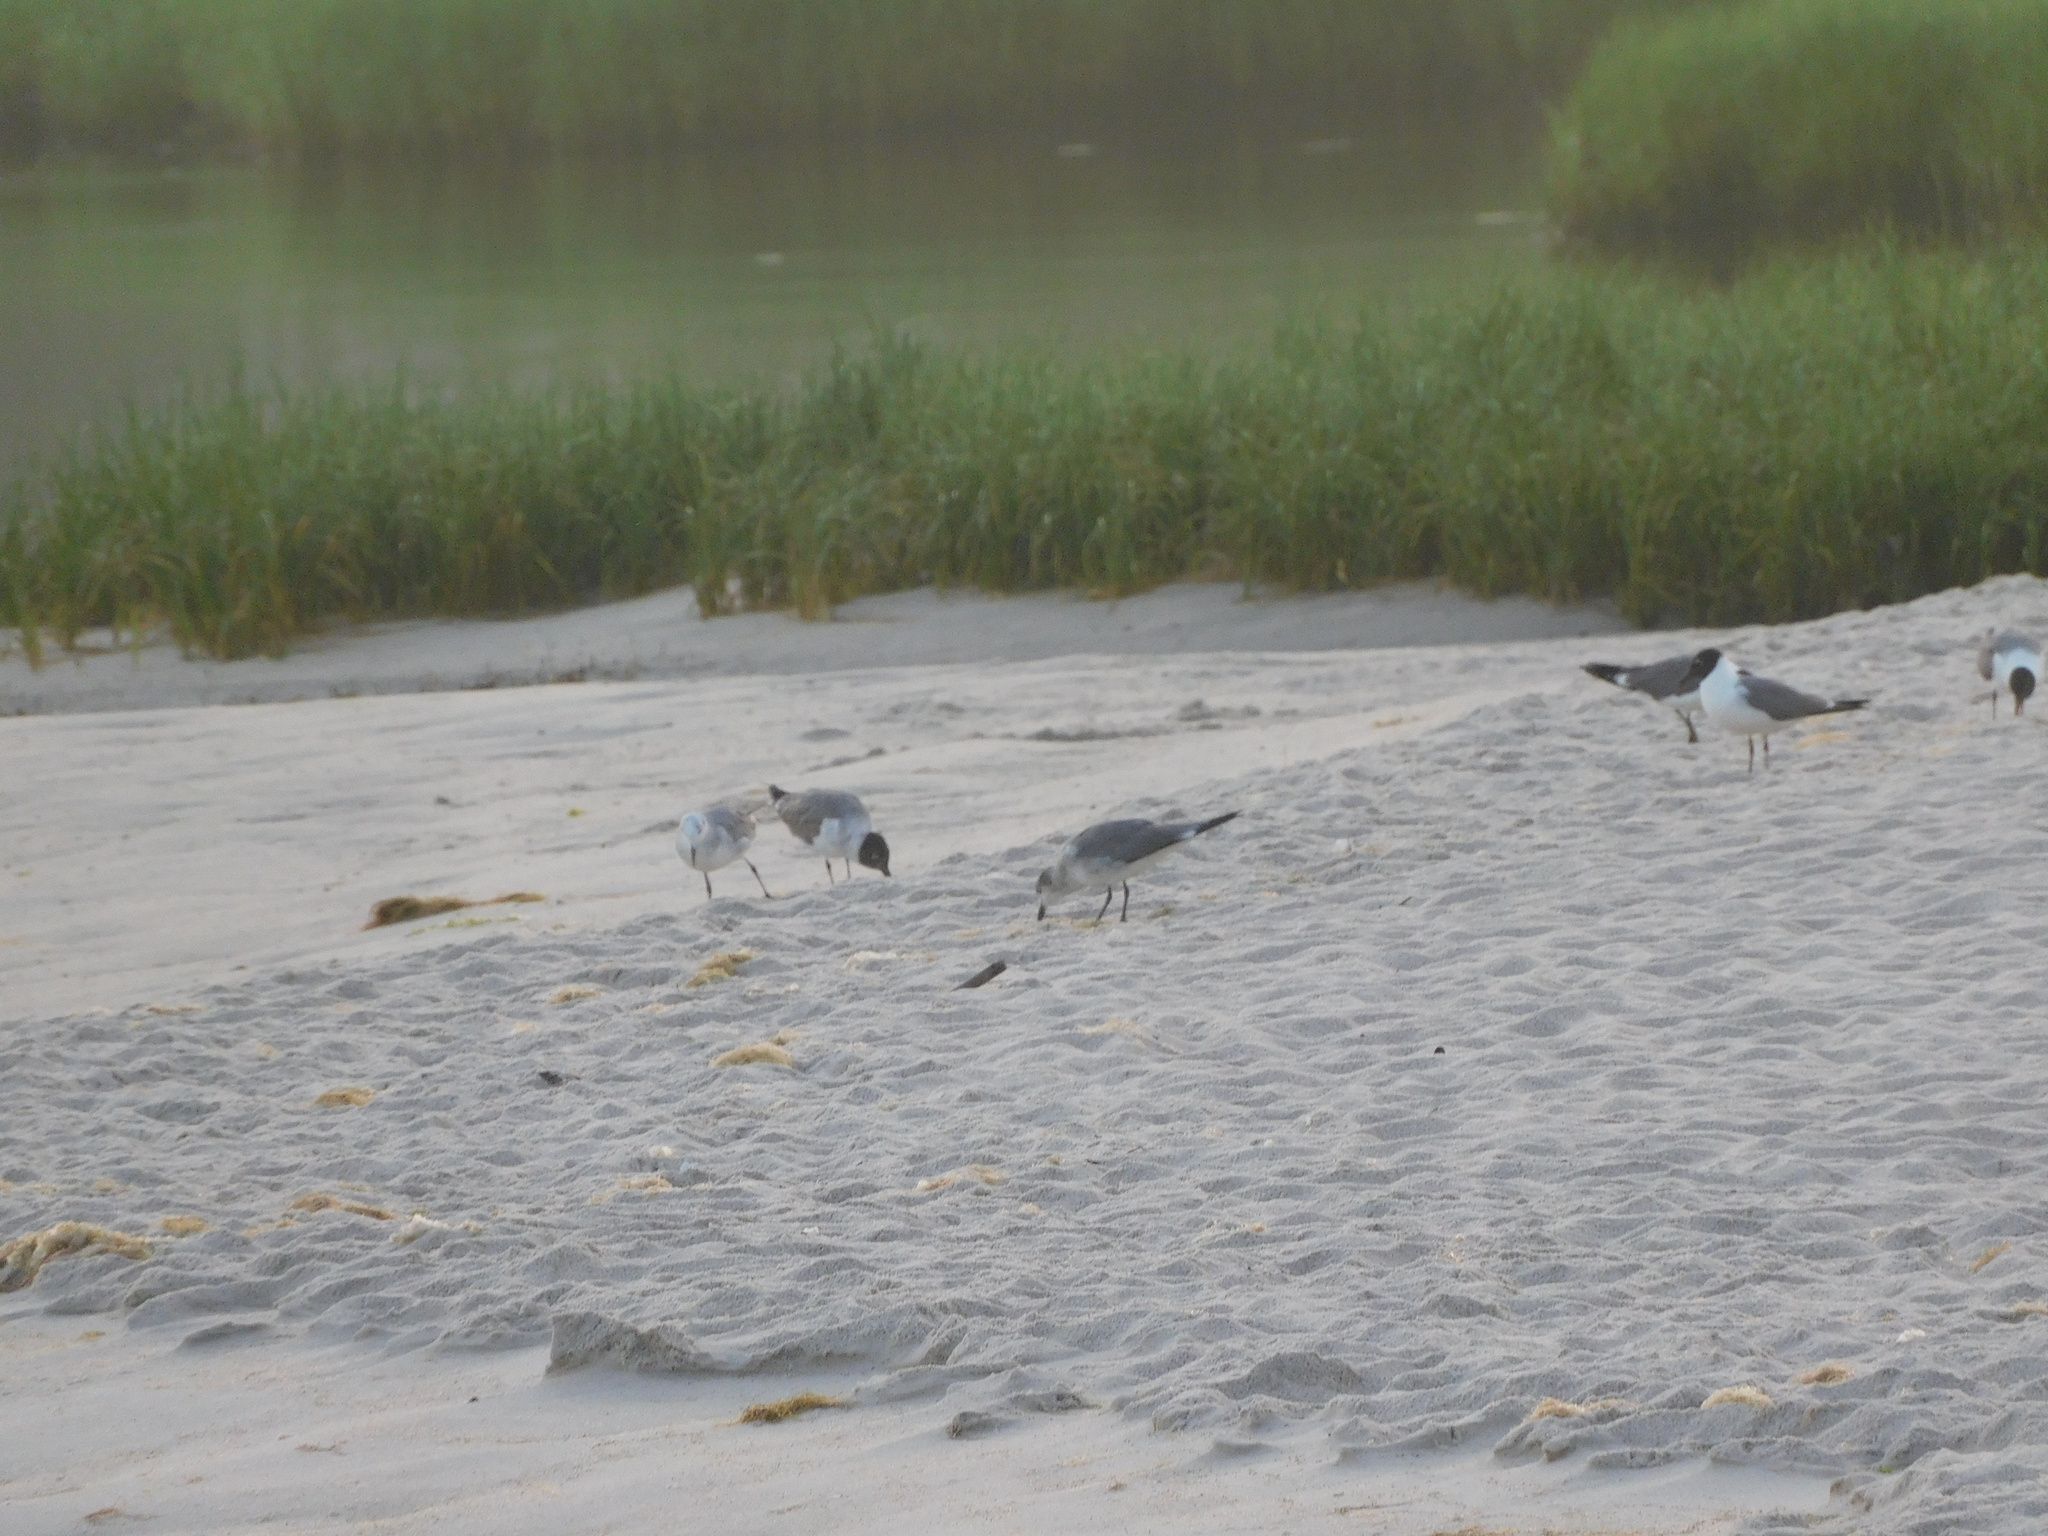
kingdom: Animalia
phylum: Chordata
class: Aves
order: Charadriiformes
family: Laridae
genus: Leucophaeus
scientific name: Leucophaeus atricilla
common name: Laughing gull
